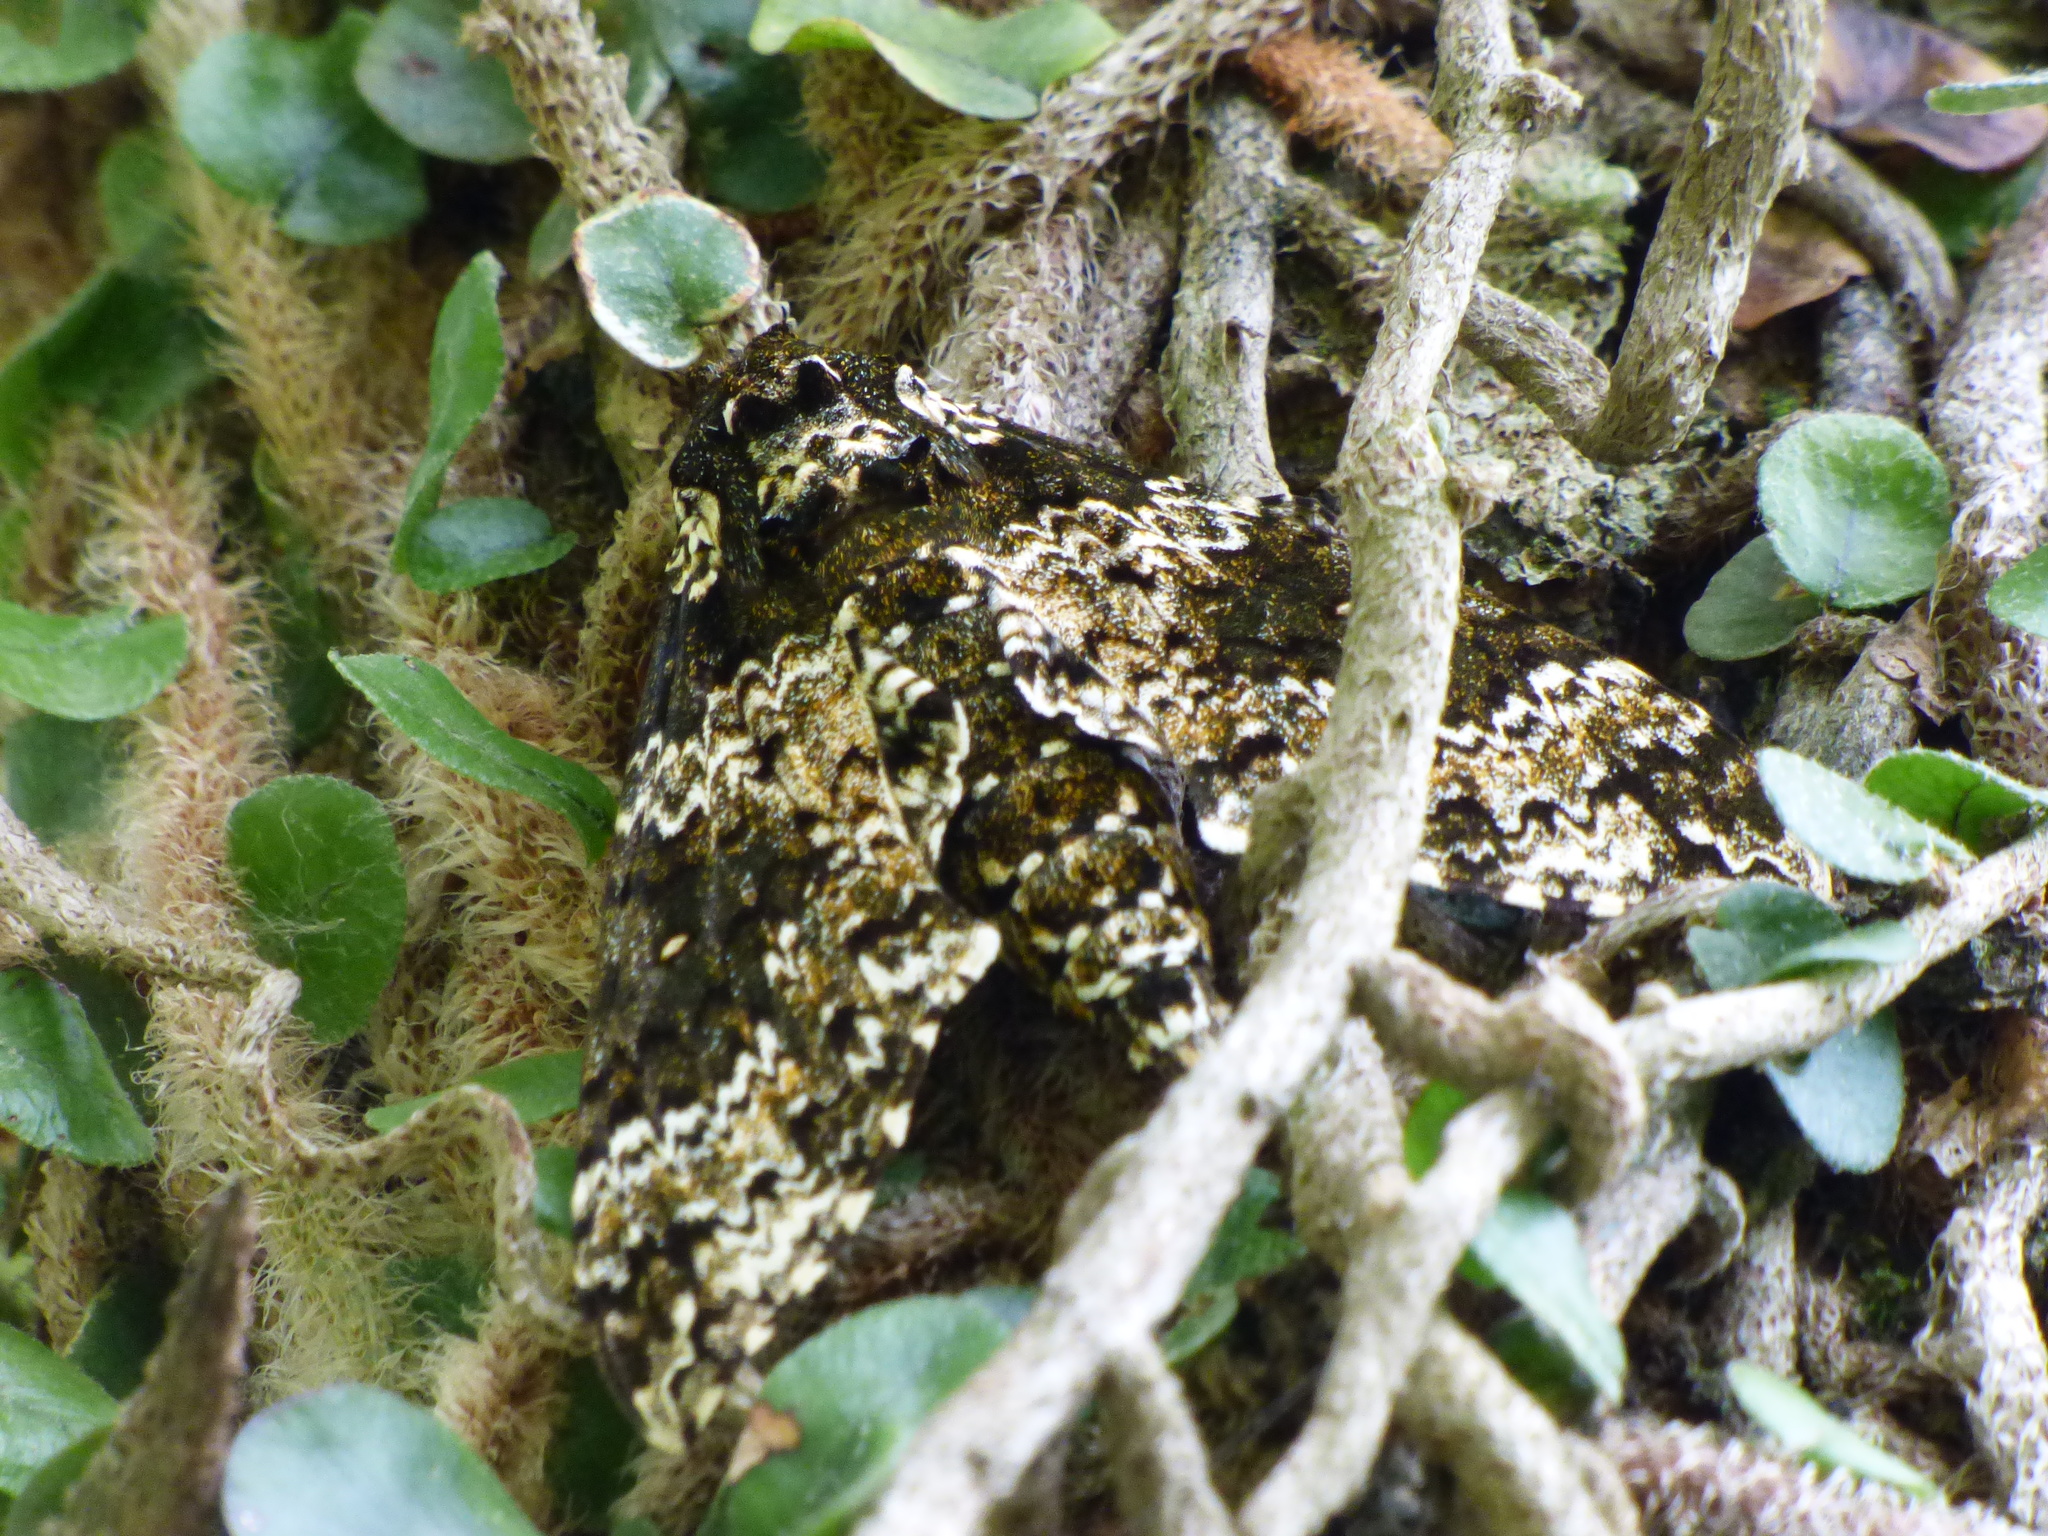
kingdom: Animalia
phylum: Arthropoda
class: Insecta
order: Lepidoptera
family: Sphingidae
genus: Manduca
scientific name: Manduca rustica
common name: Rustic sphinx
